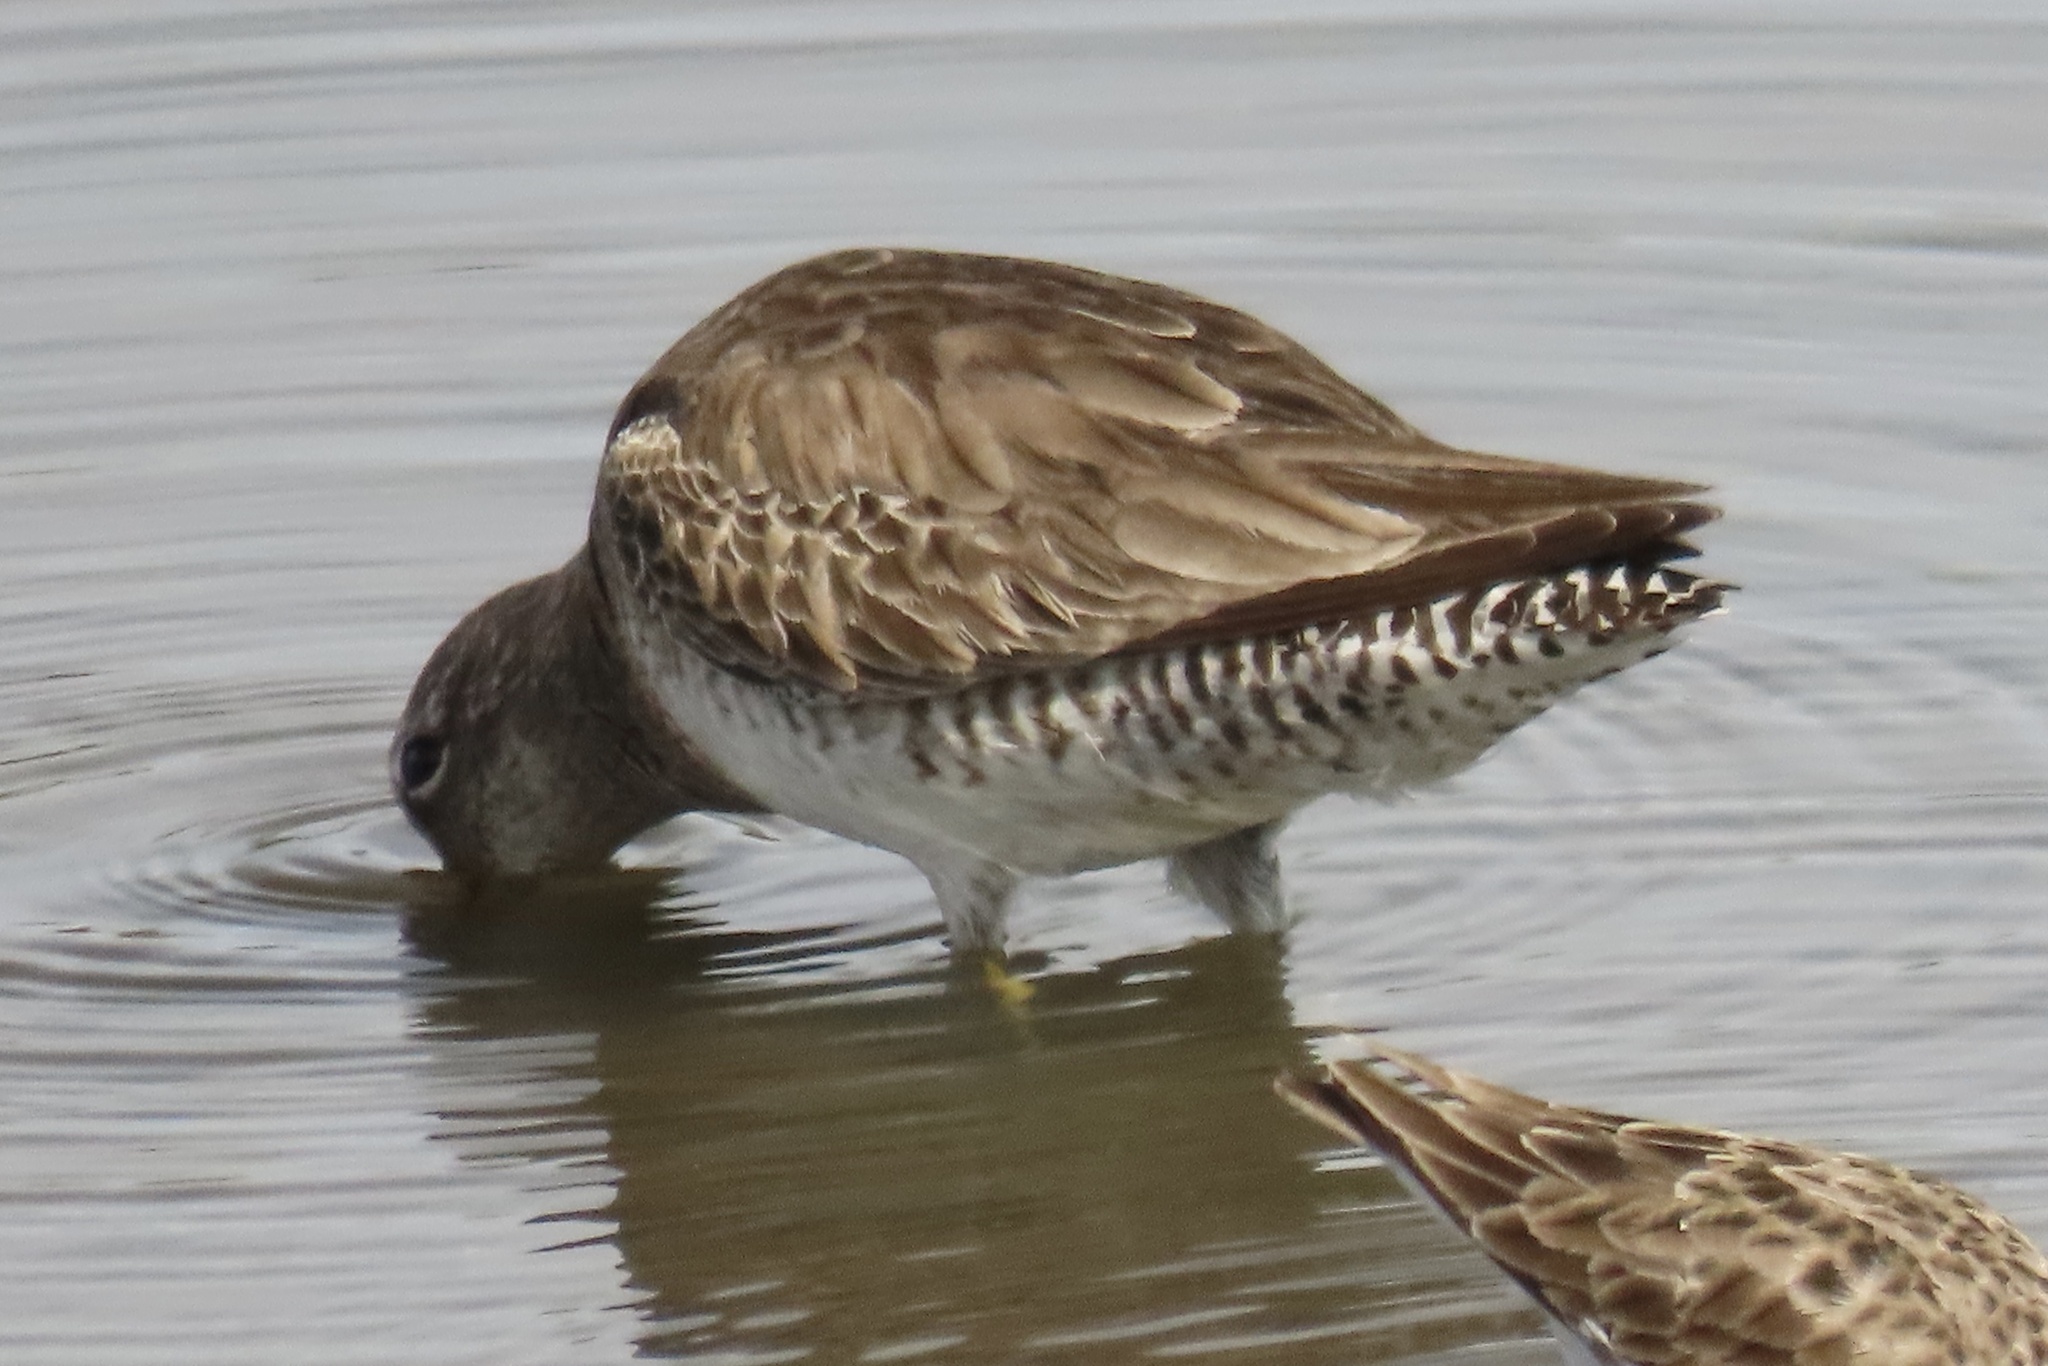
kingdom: Animalia
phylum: Chordata
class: Aves
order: Charadriiformes
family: Scolopacidae
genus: Limnodromus
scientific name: Limnodromus
